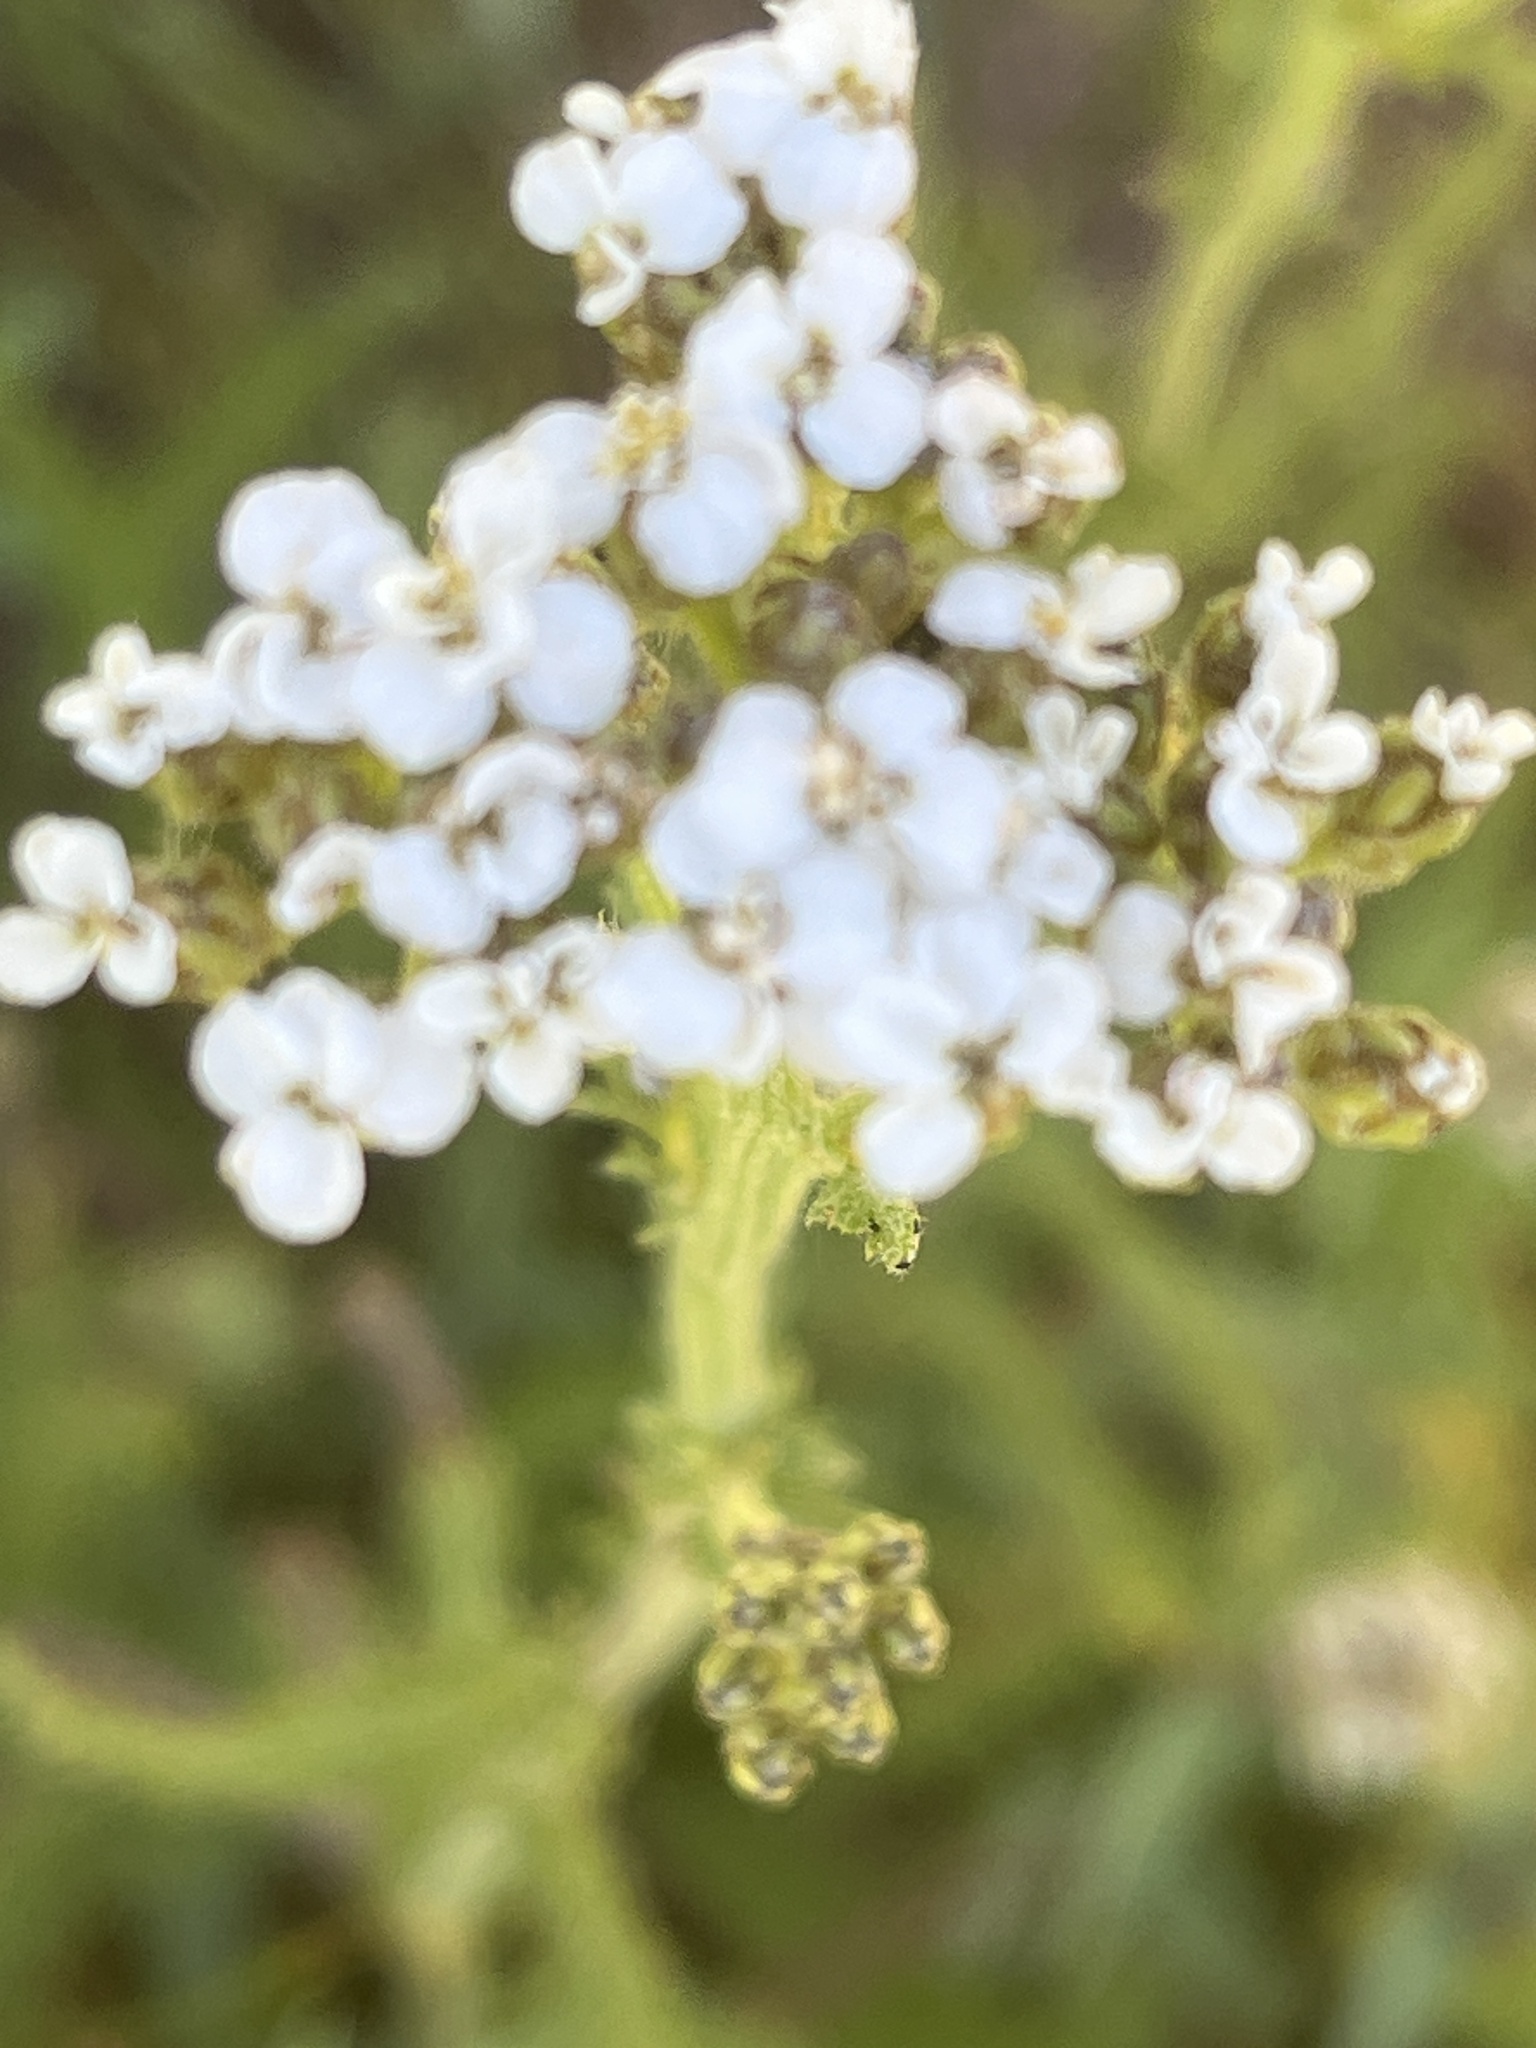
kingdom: Plantae
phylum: Tracheophyta
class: Magnoliopsida
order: Asterales
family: Asteraceae
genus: Achillea
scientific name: Achillea millefolium
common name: Yarrow
